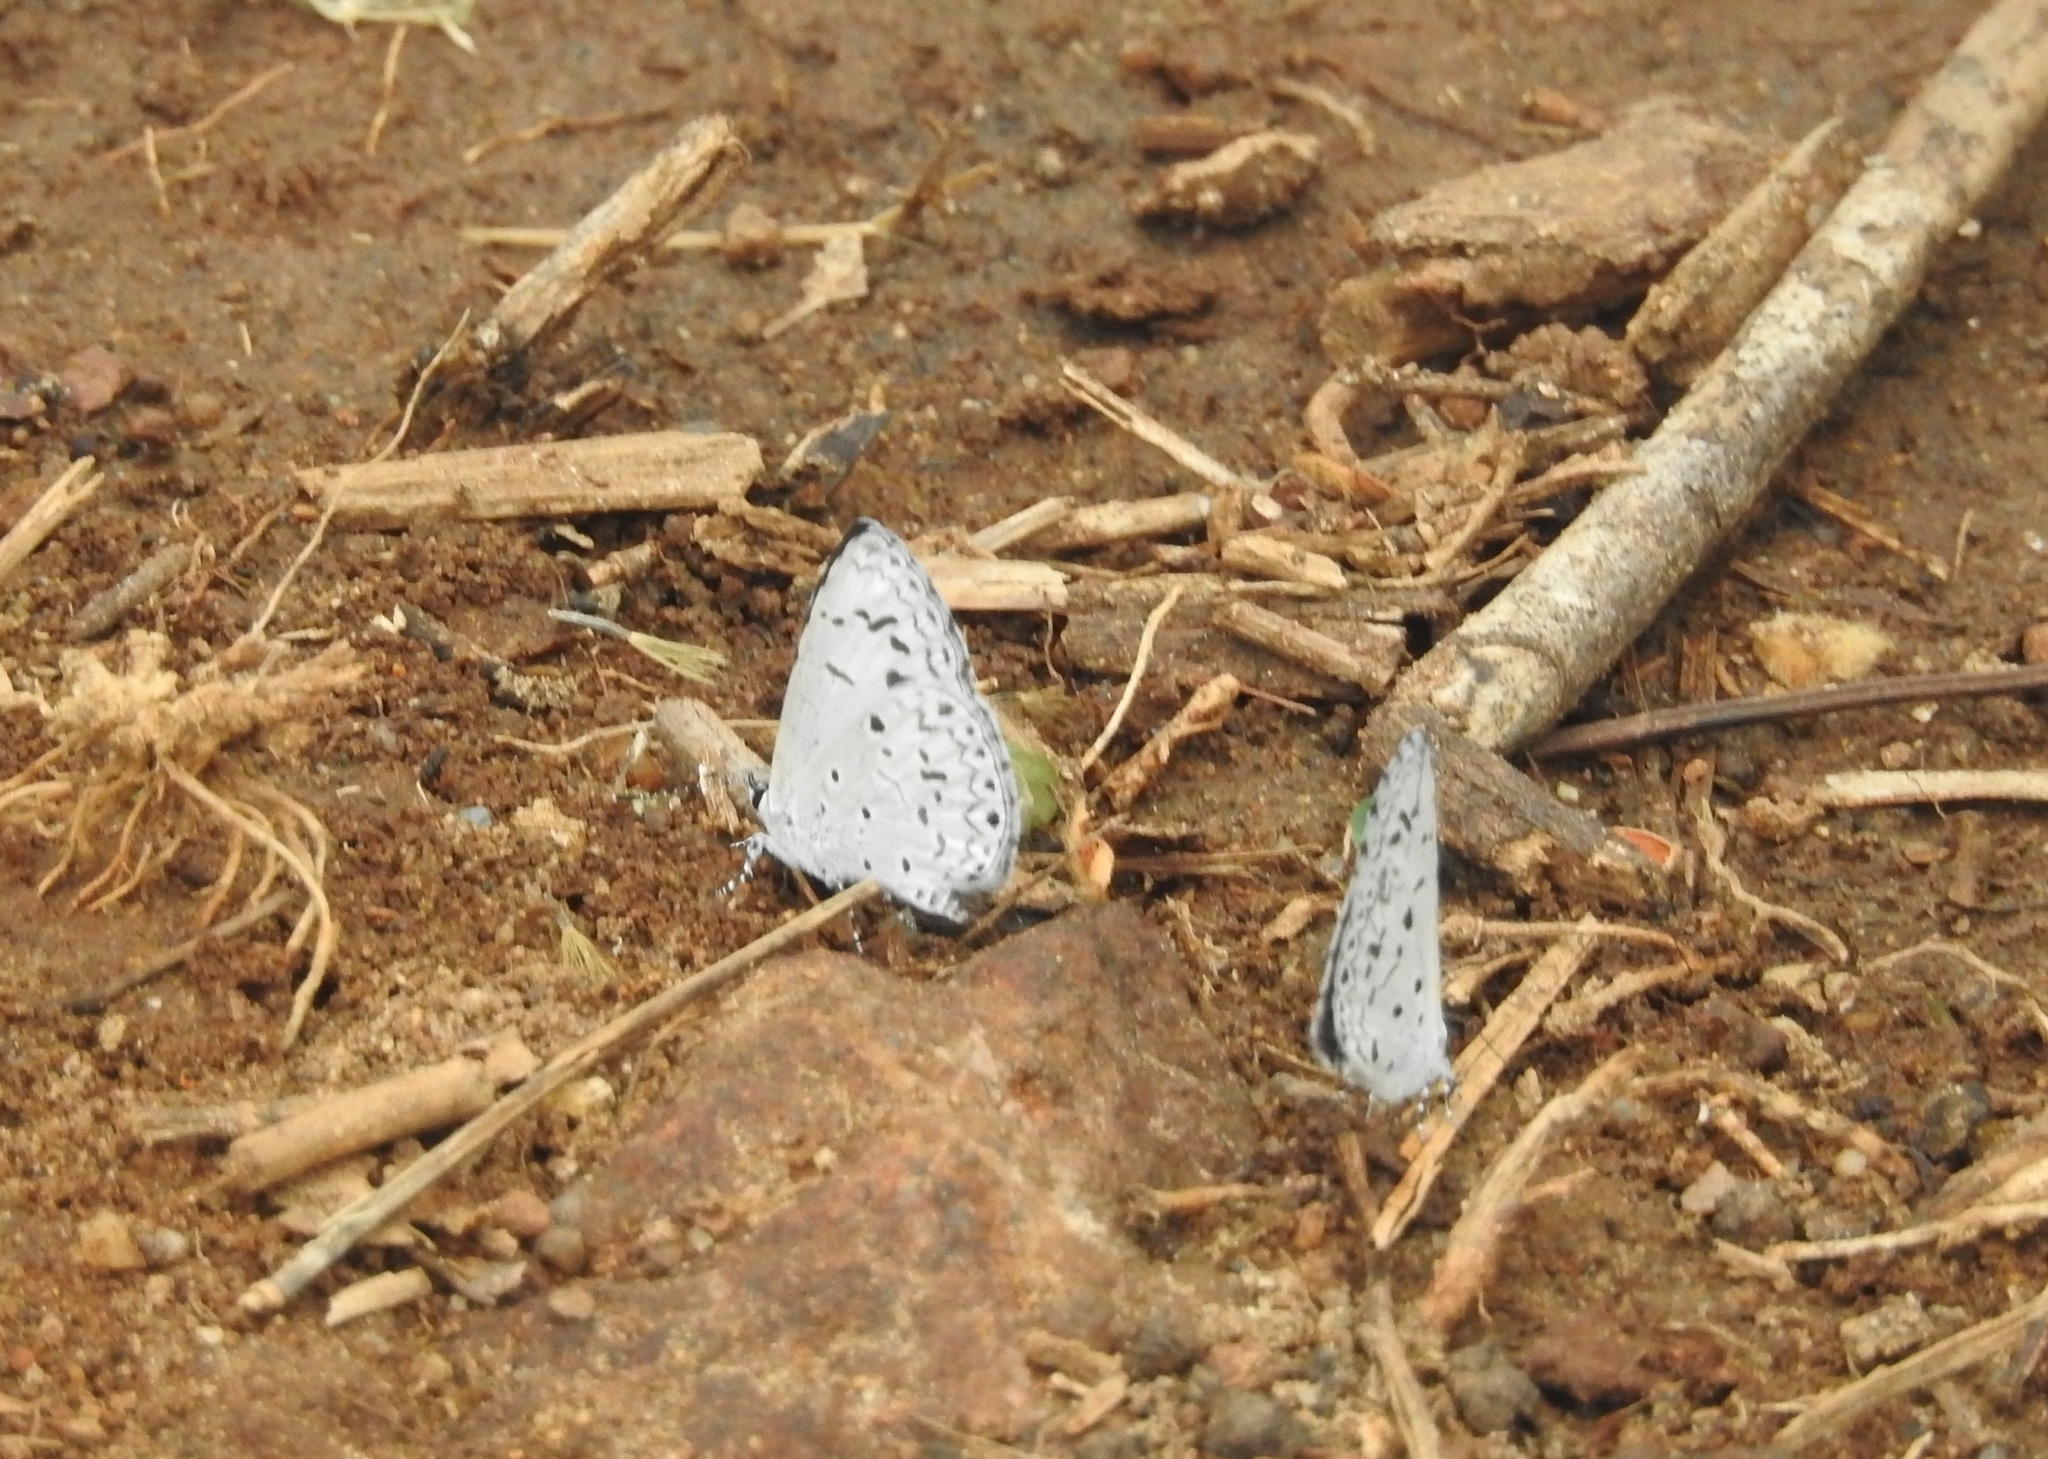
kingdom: Animalia
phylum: Arthropoda
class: Insecta
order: Lepidoptera
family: Lycaenidae
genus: Acytolepis
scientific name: Acytolepis puspa
